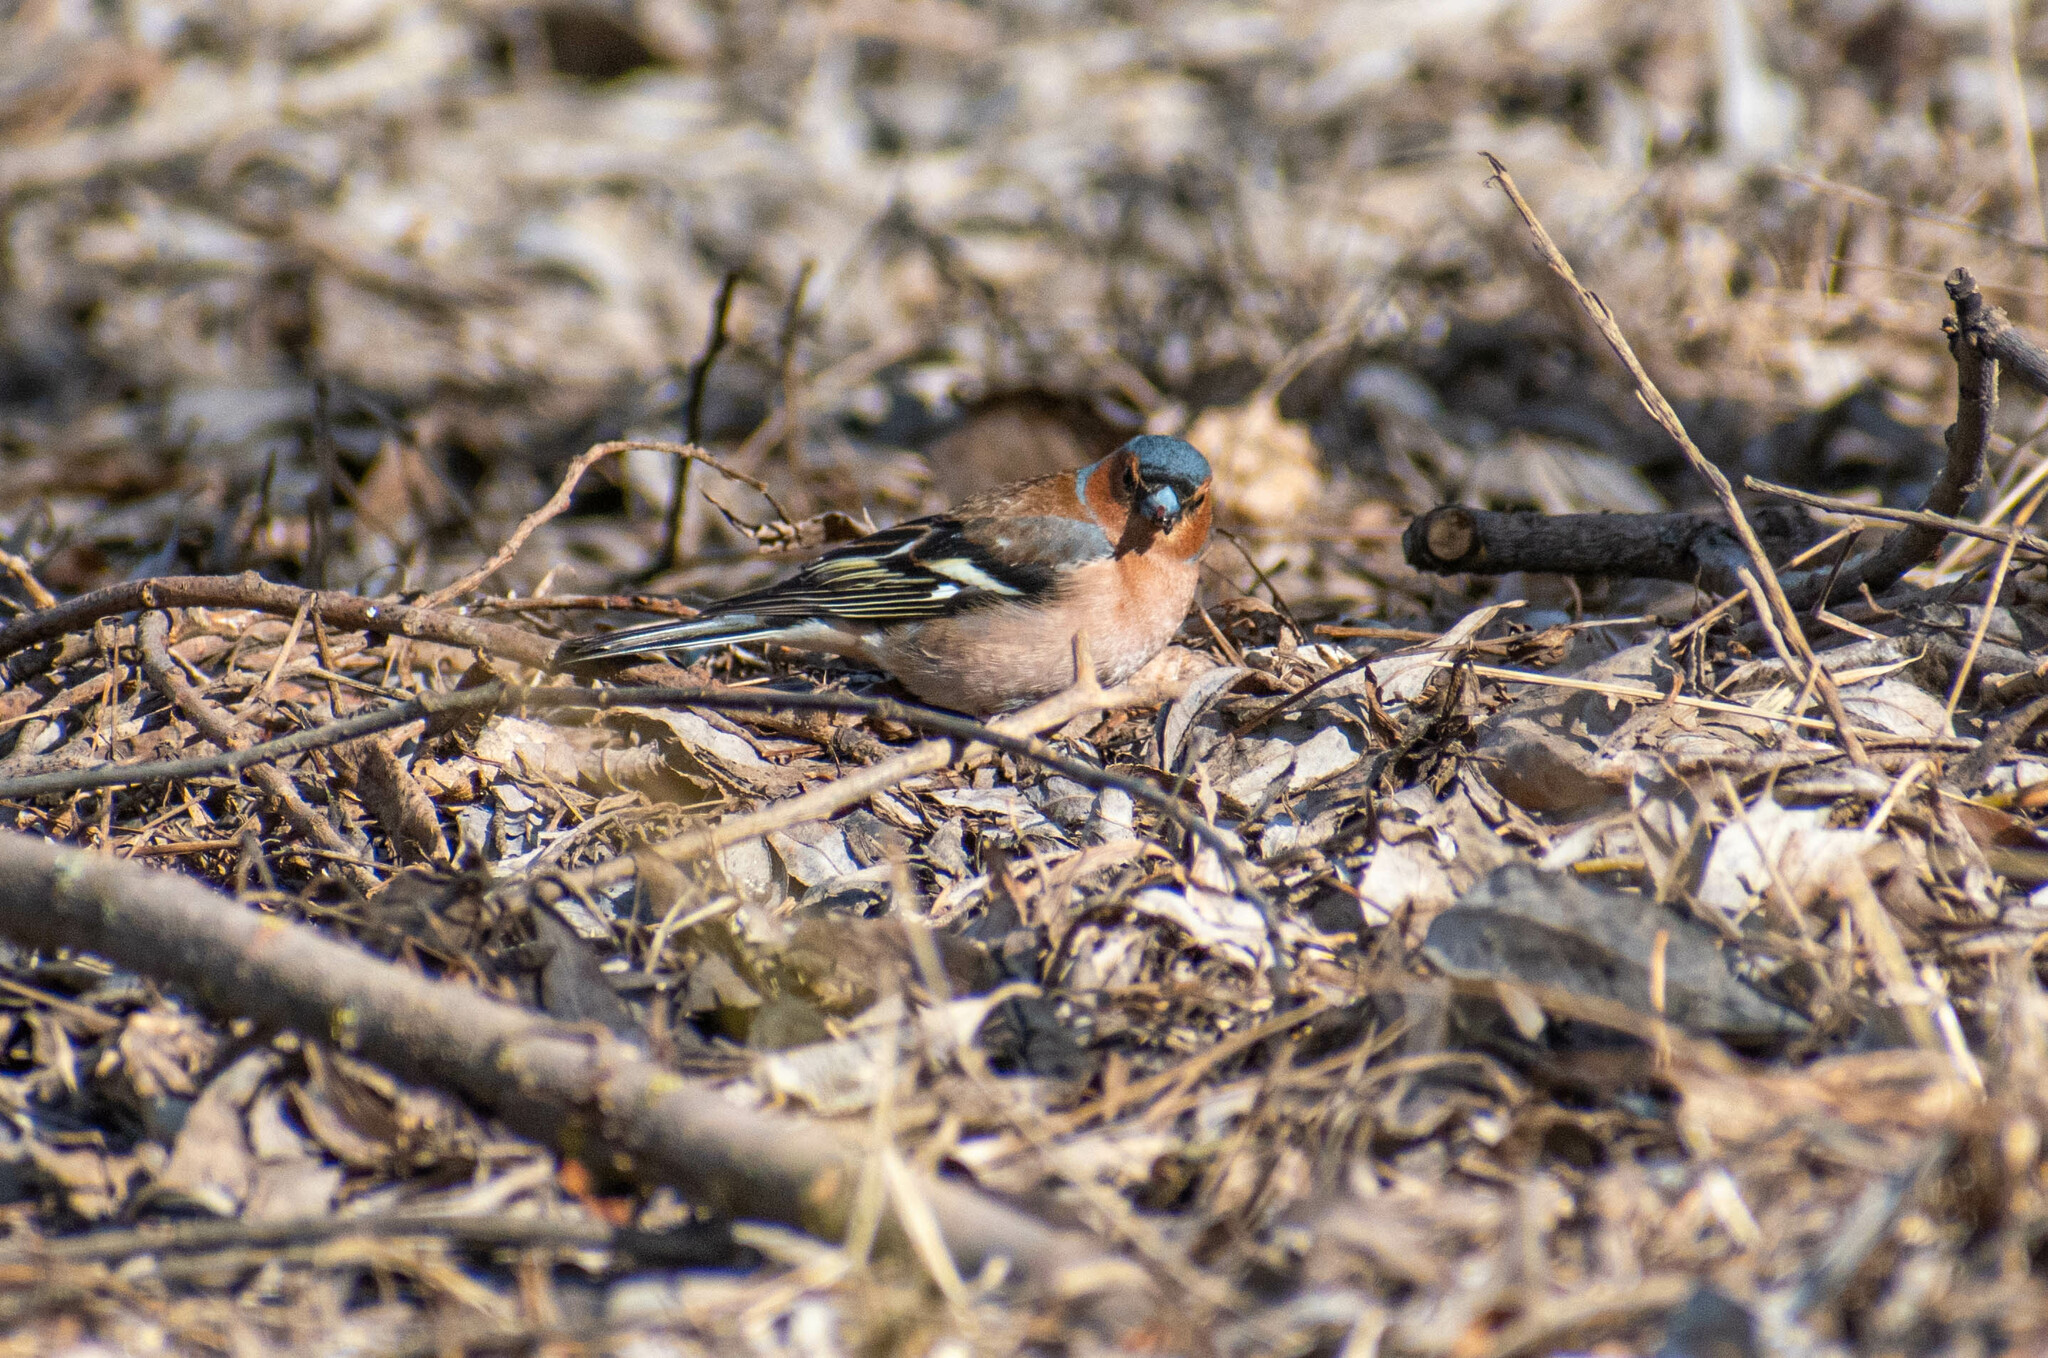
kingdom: Animalia
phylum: Chordata
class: Aves
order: Passeriformes
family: Fringillidae
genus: Fringilla
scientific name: Fringilla coelebs
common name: Common chaffinch
